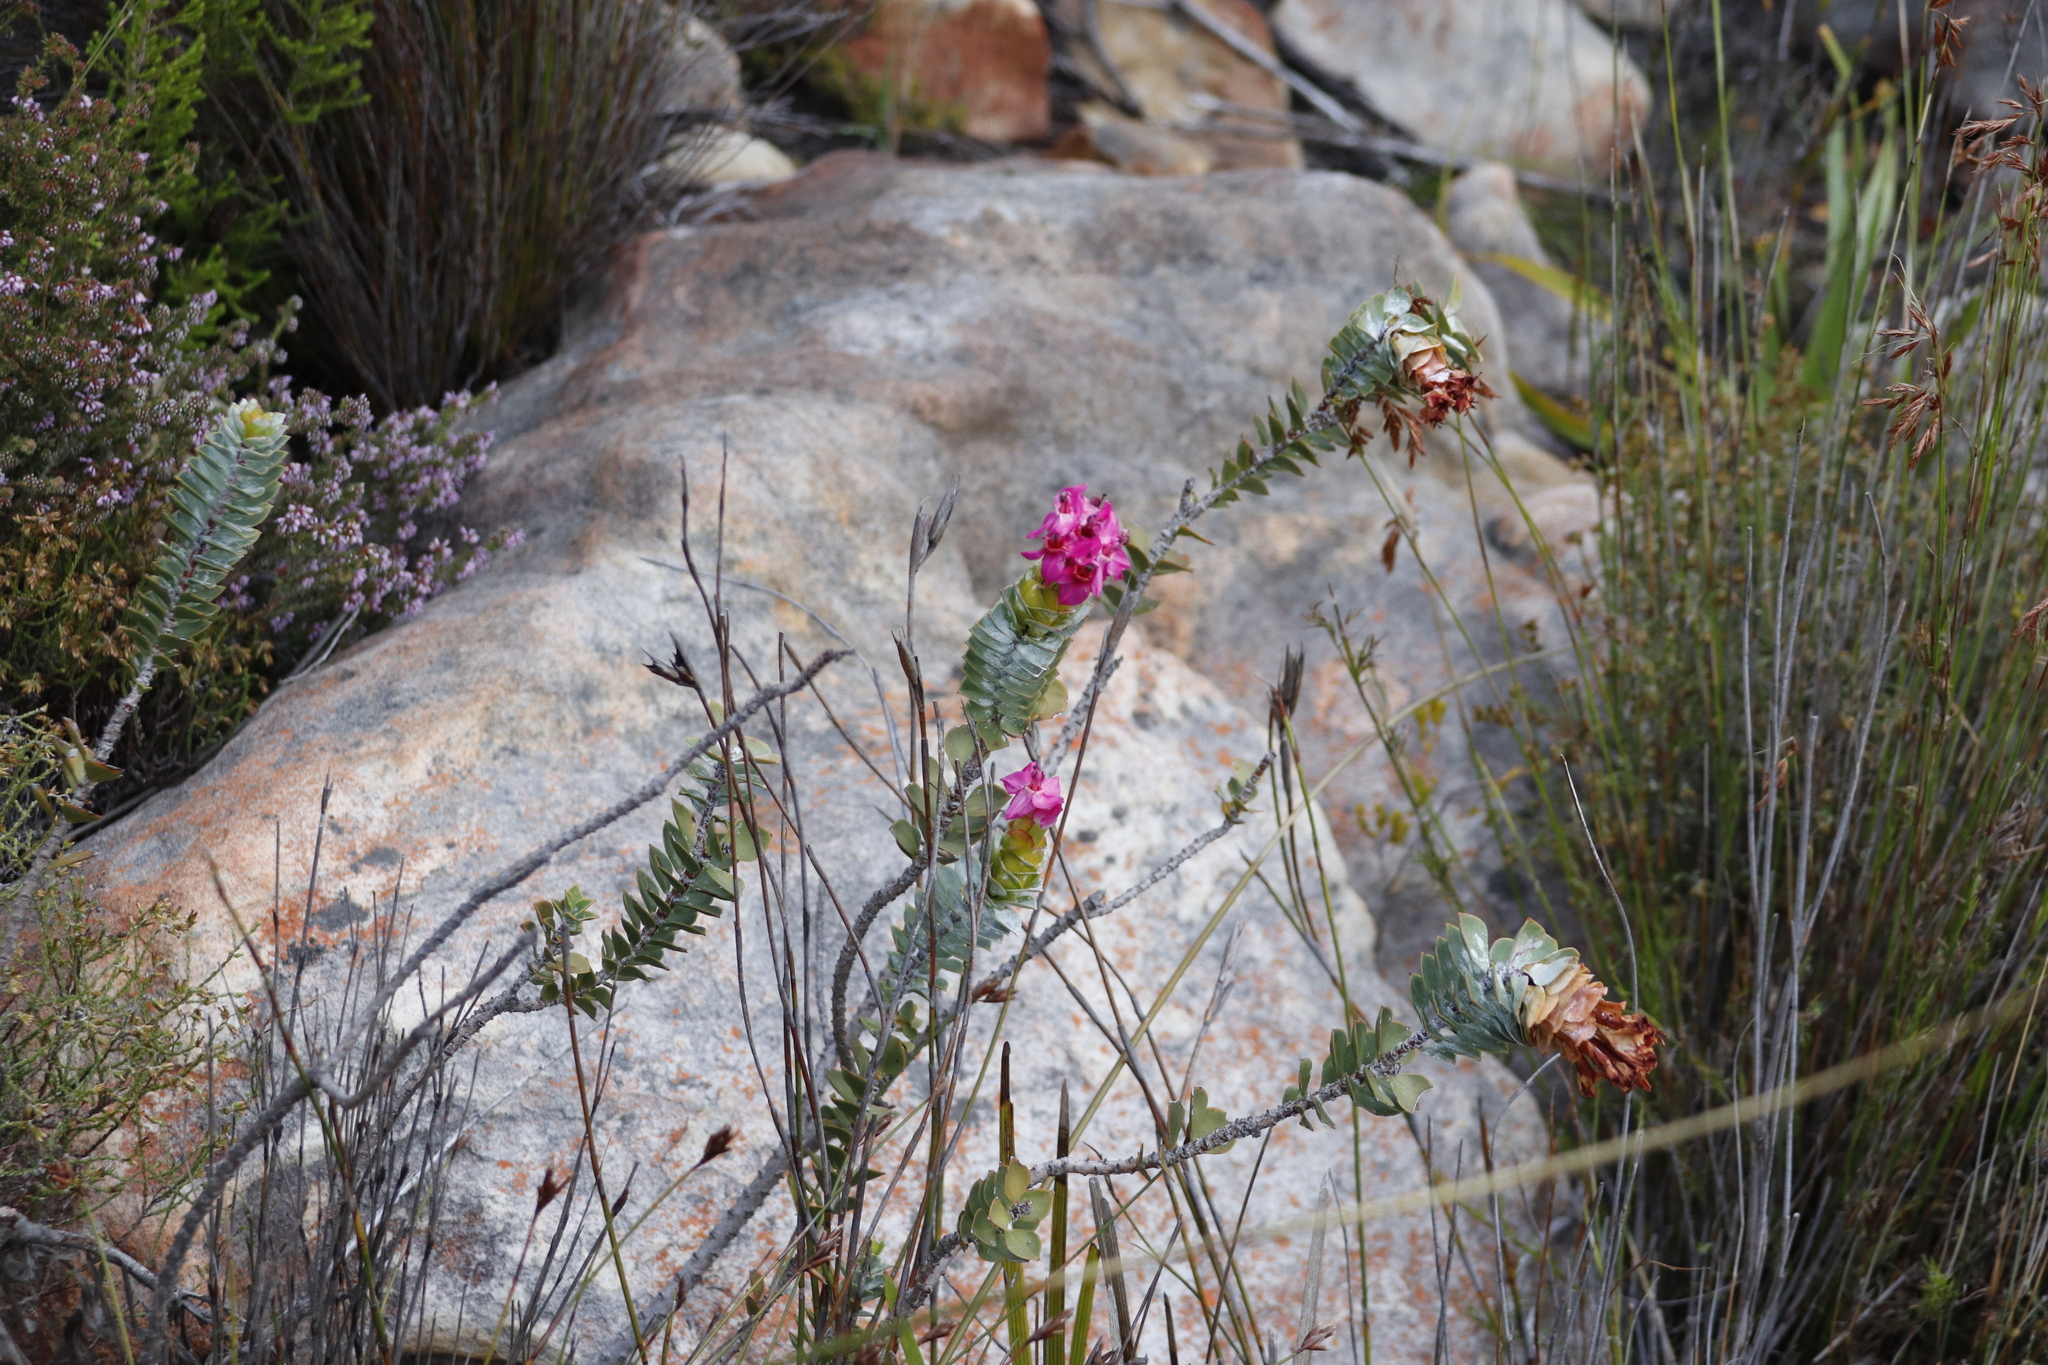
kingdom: Plantae
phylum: Tracheophyta
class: Magnoliopsida
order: Myrtales
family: Penaeaceae
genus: Saltera
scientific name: Saltera sarcocolla
